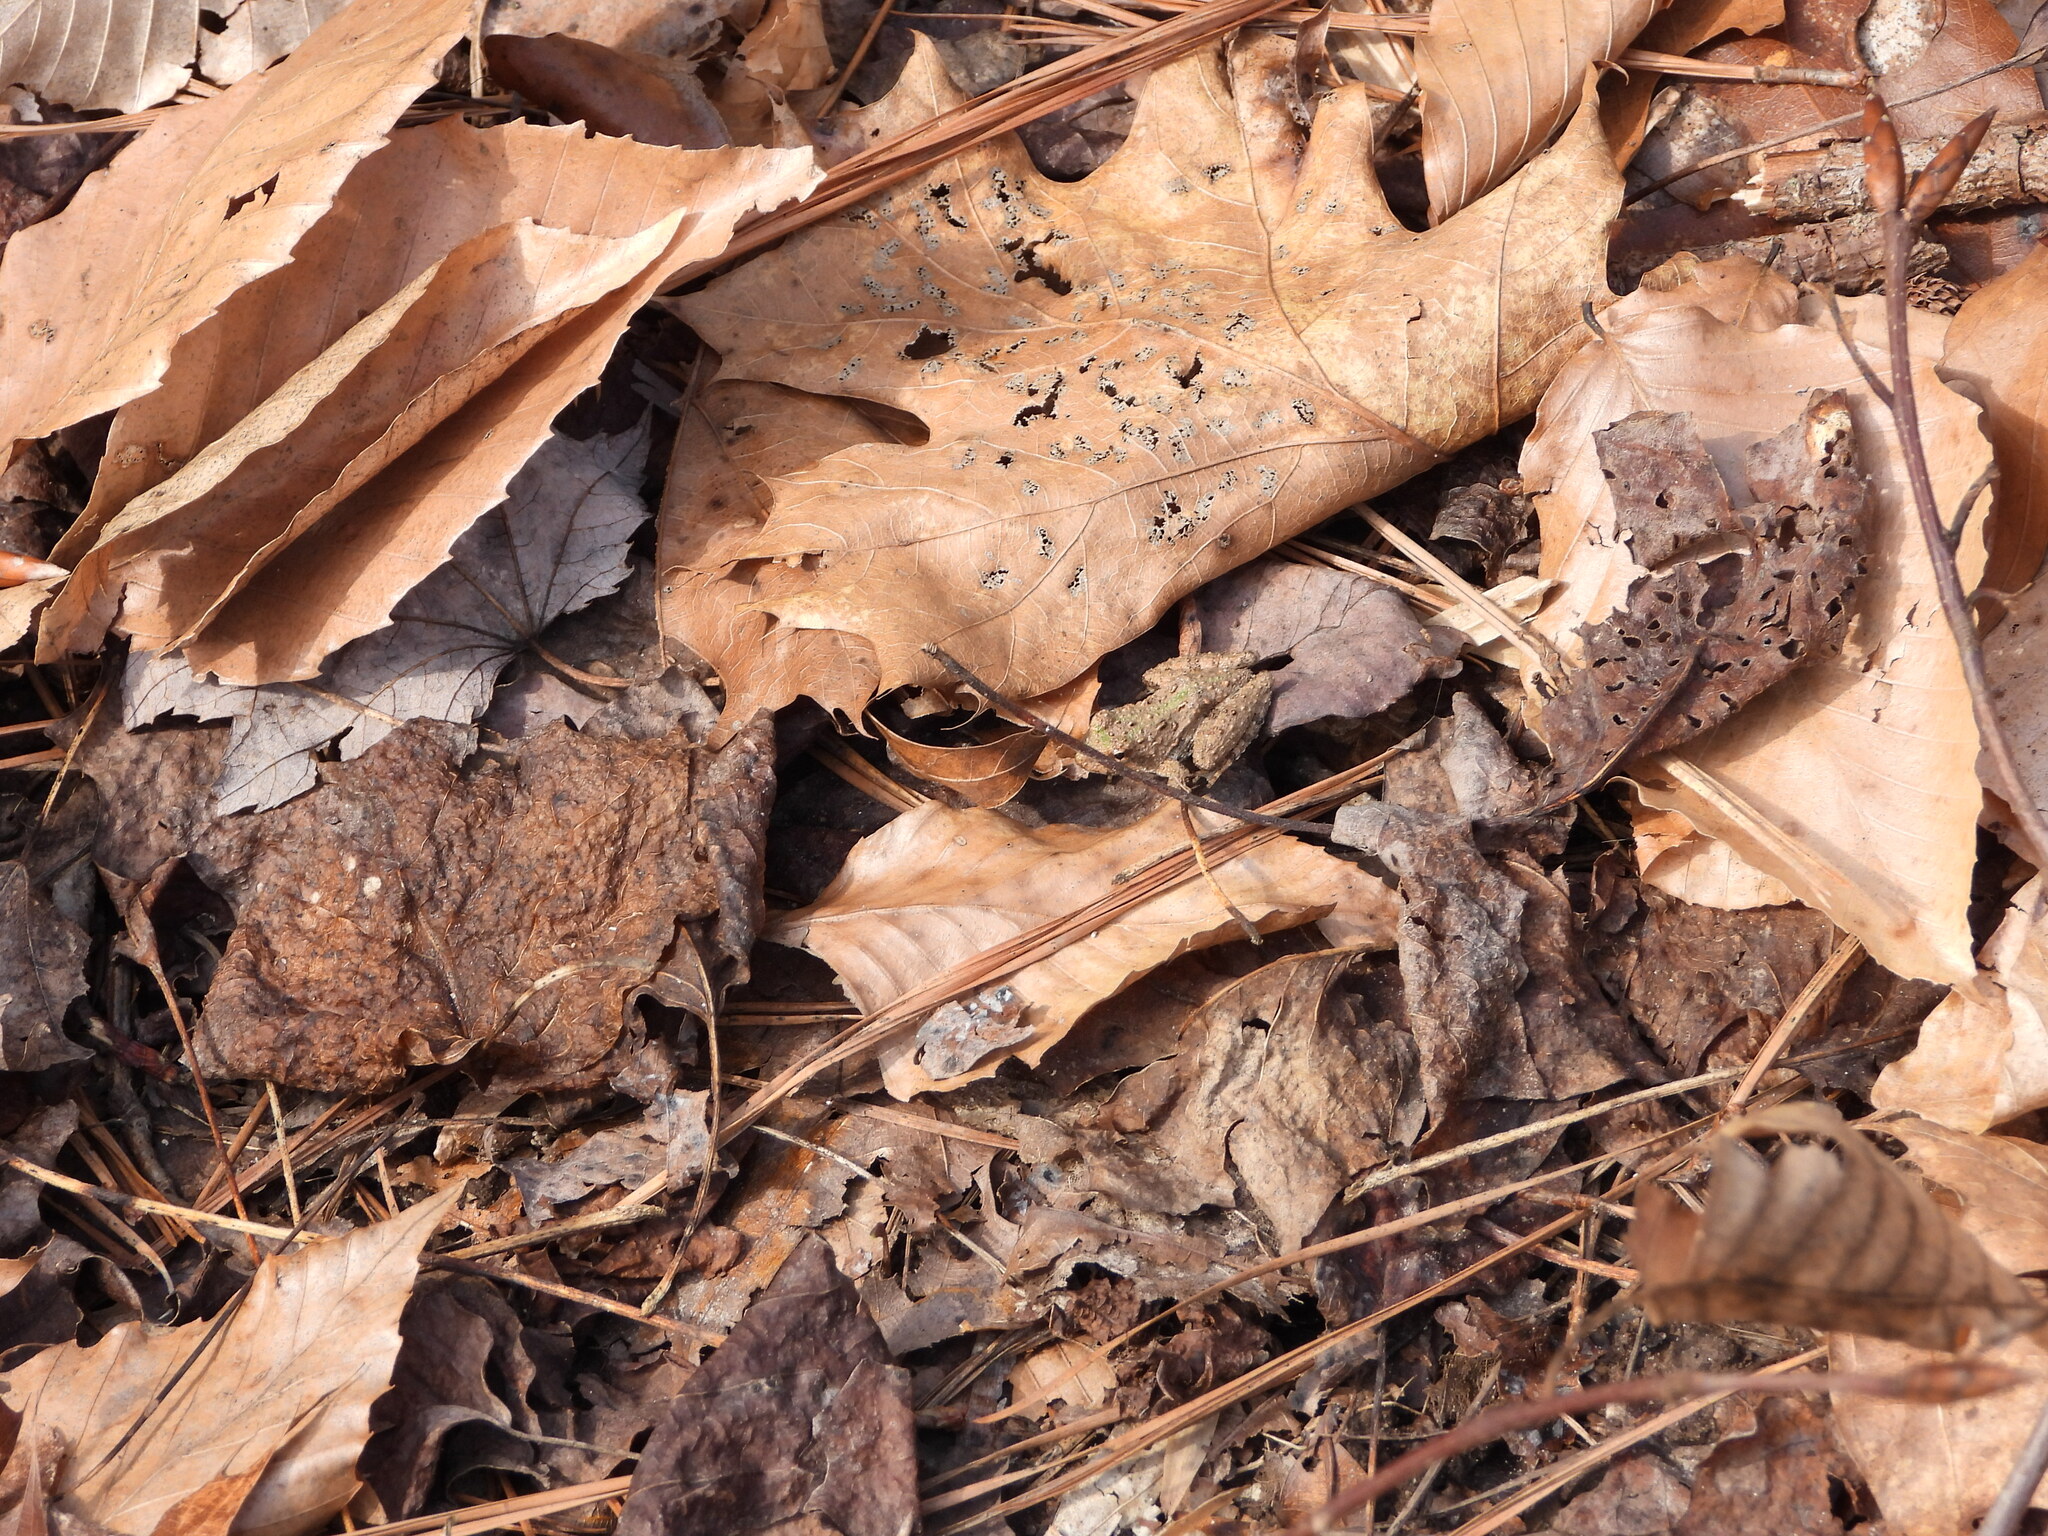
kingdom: Animalia
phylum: Chordata
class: Amphibia
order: Anura
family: Hylidae
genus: Acris
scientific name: Acris crepitans
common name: Northern cricket frog
